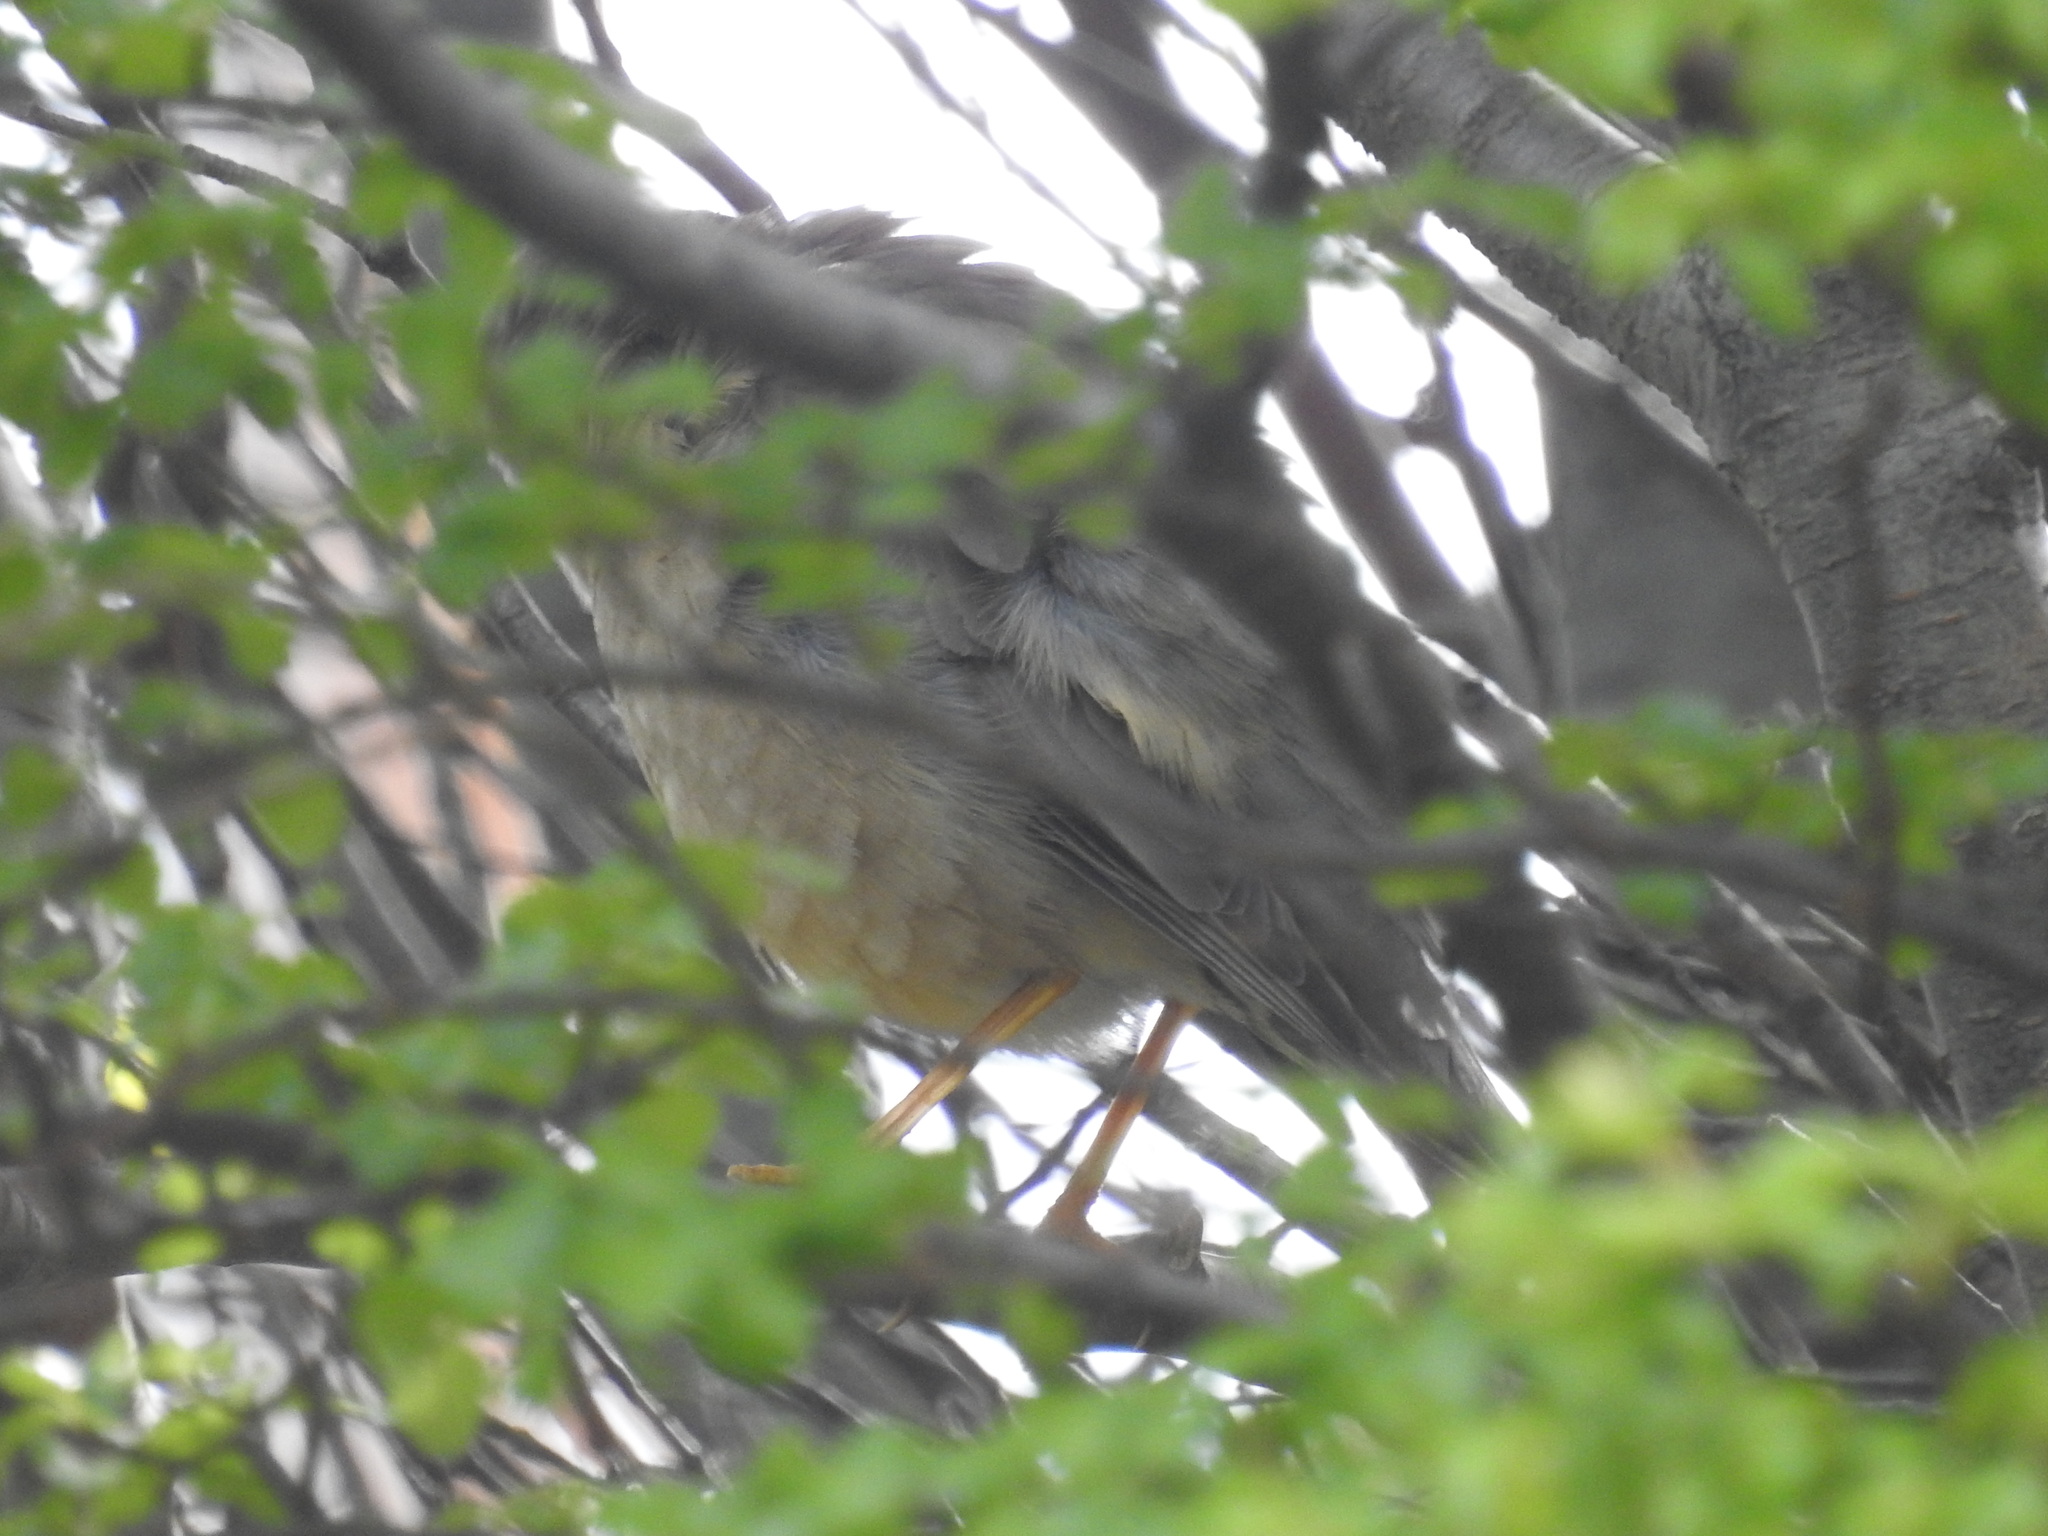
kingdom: Animalia
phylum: Chordata
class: Aves
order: Passeriformes
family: Turdidae
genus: Turdus
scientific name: Turdus falcklandii
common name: Austral thrush
